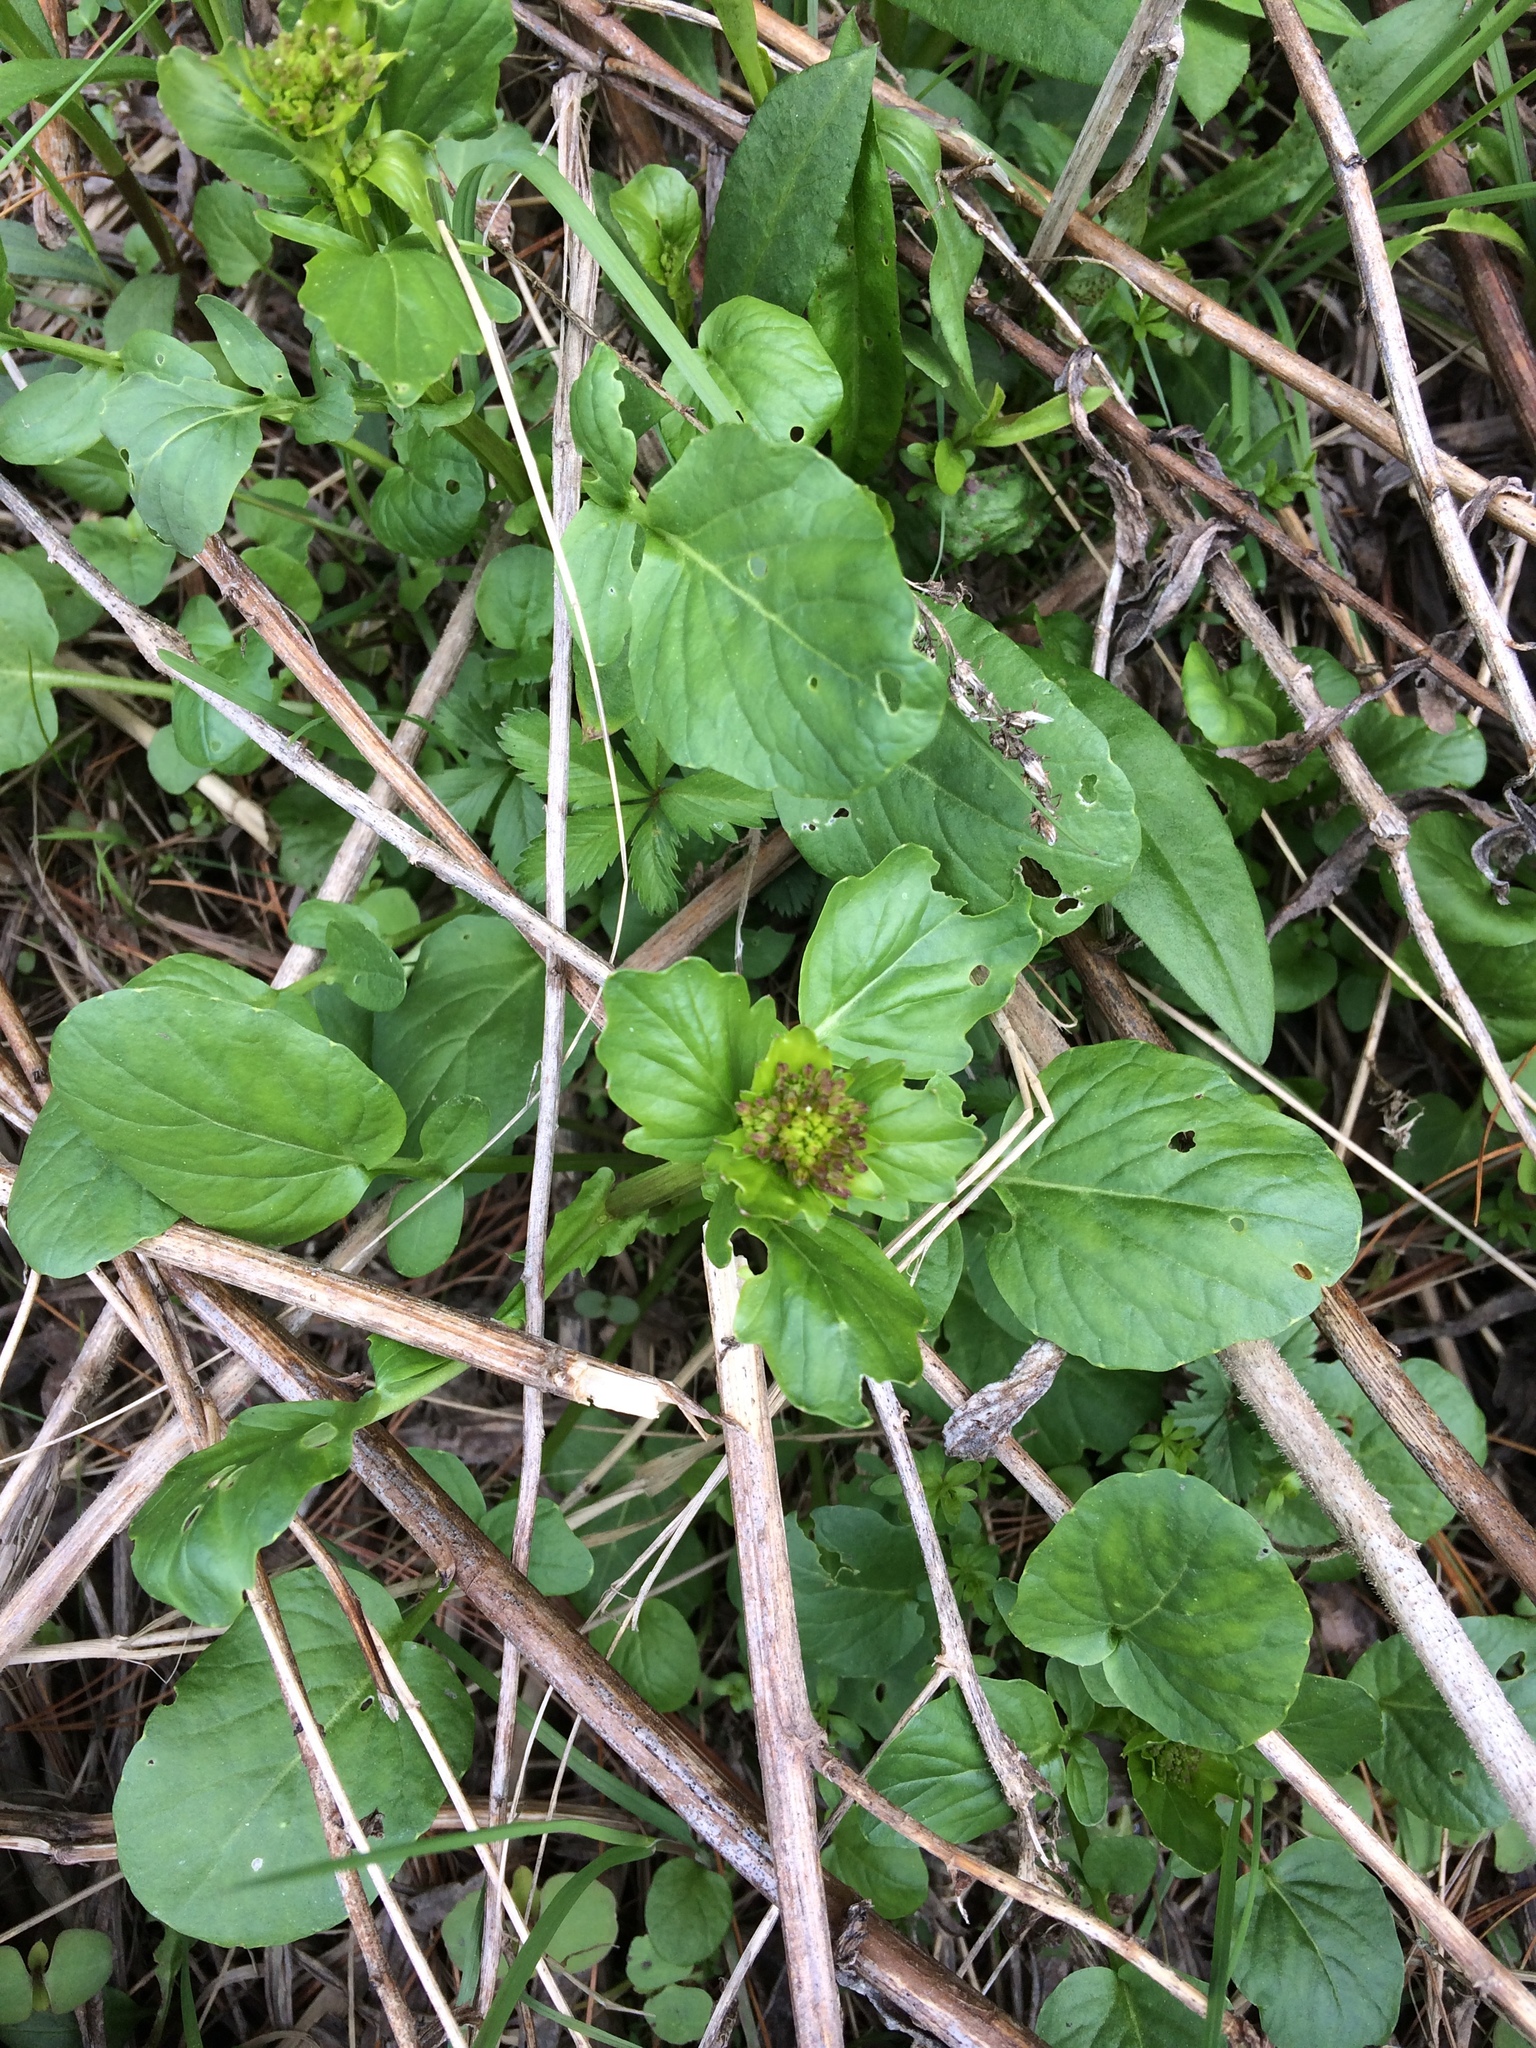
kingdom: Plantae
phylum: Tracheophyta
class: Magnoliopsida
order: Brassicales
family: Brassicaceae
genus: Barbarea
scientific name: Barbarea vulgaris
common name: Cressy-greens
